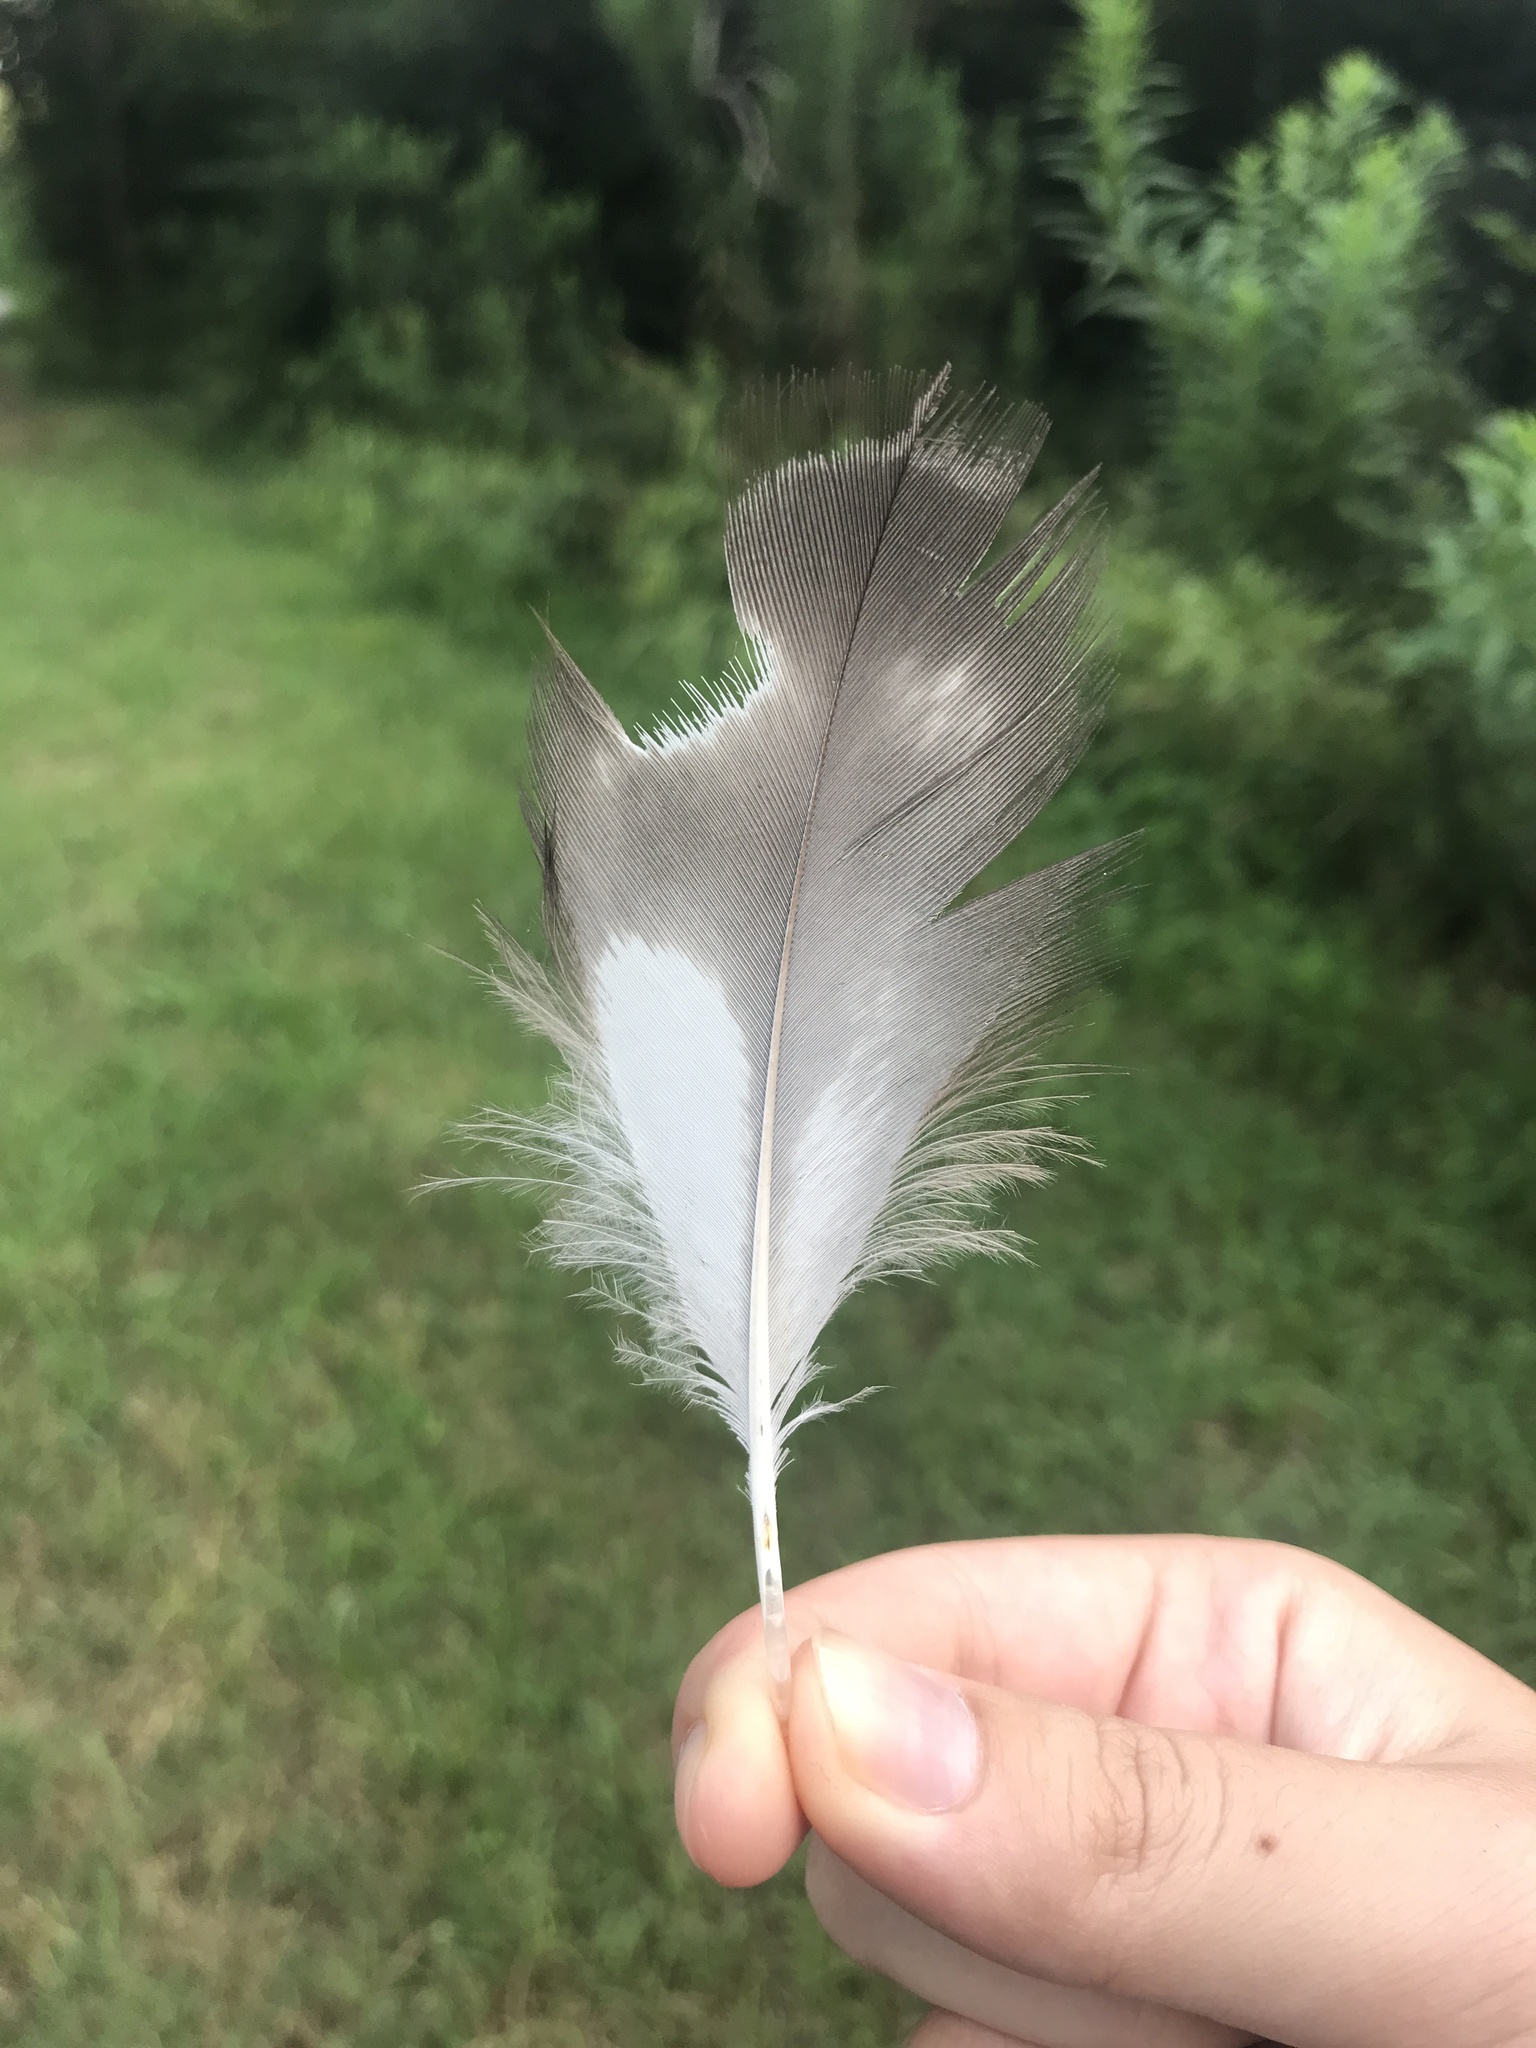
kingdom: Animalia
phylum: Chordata
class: Aves
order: Accipitriformes
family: Accipitridae
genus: Ictinia
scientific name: Ictinia mississippiensis
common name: Mississippi kite
